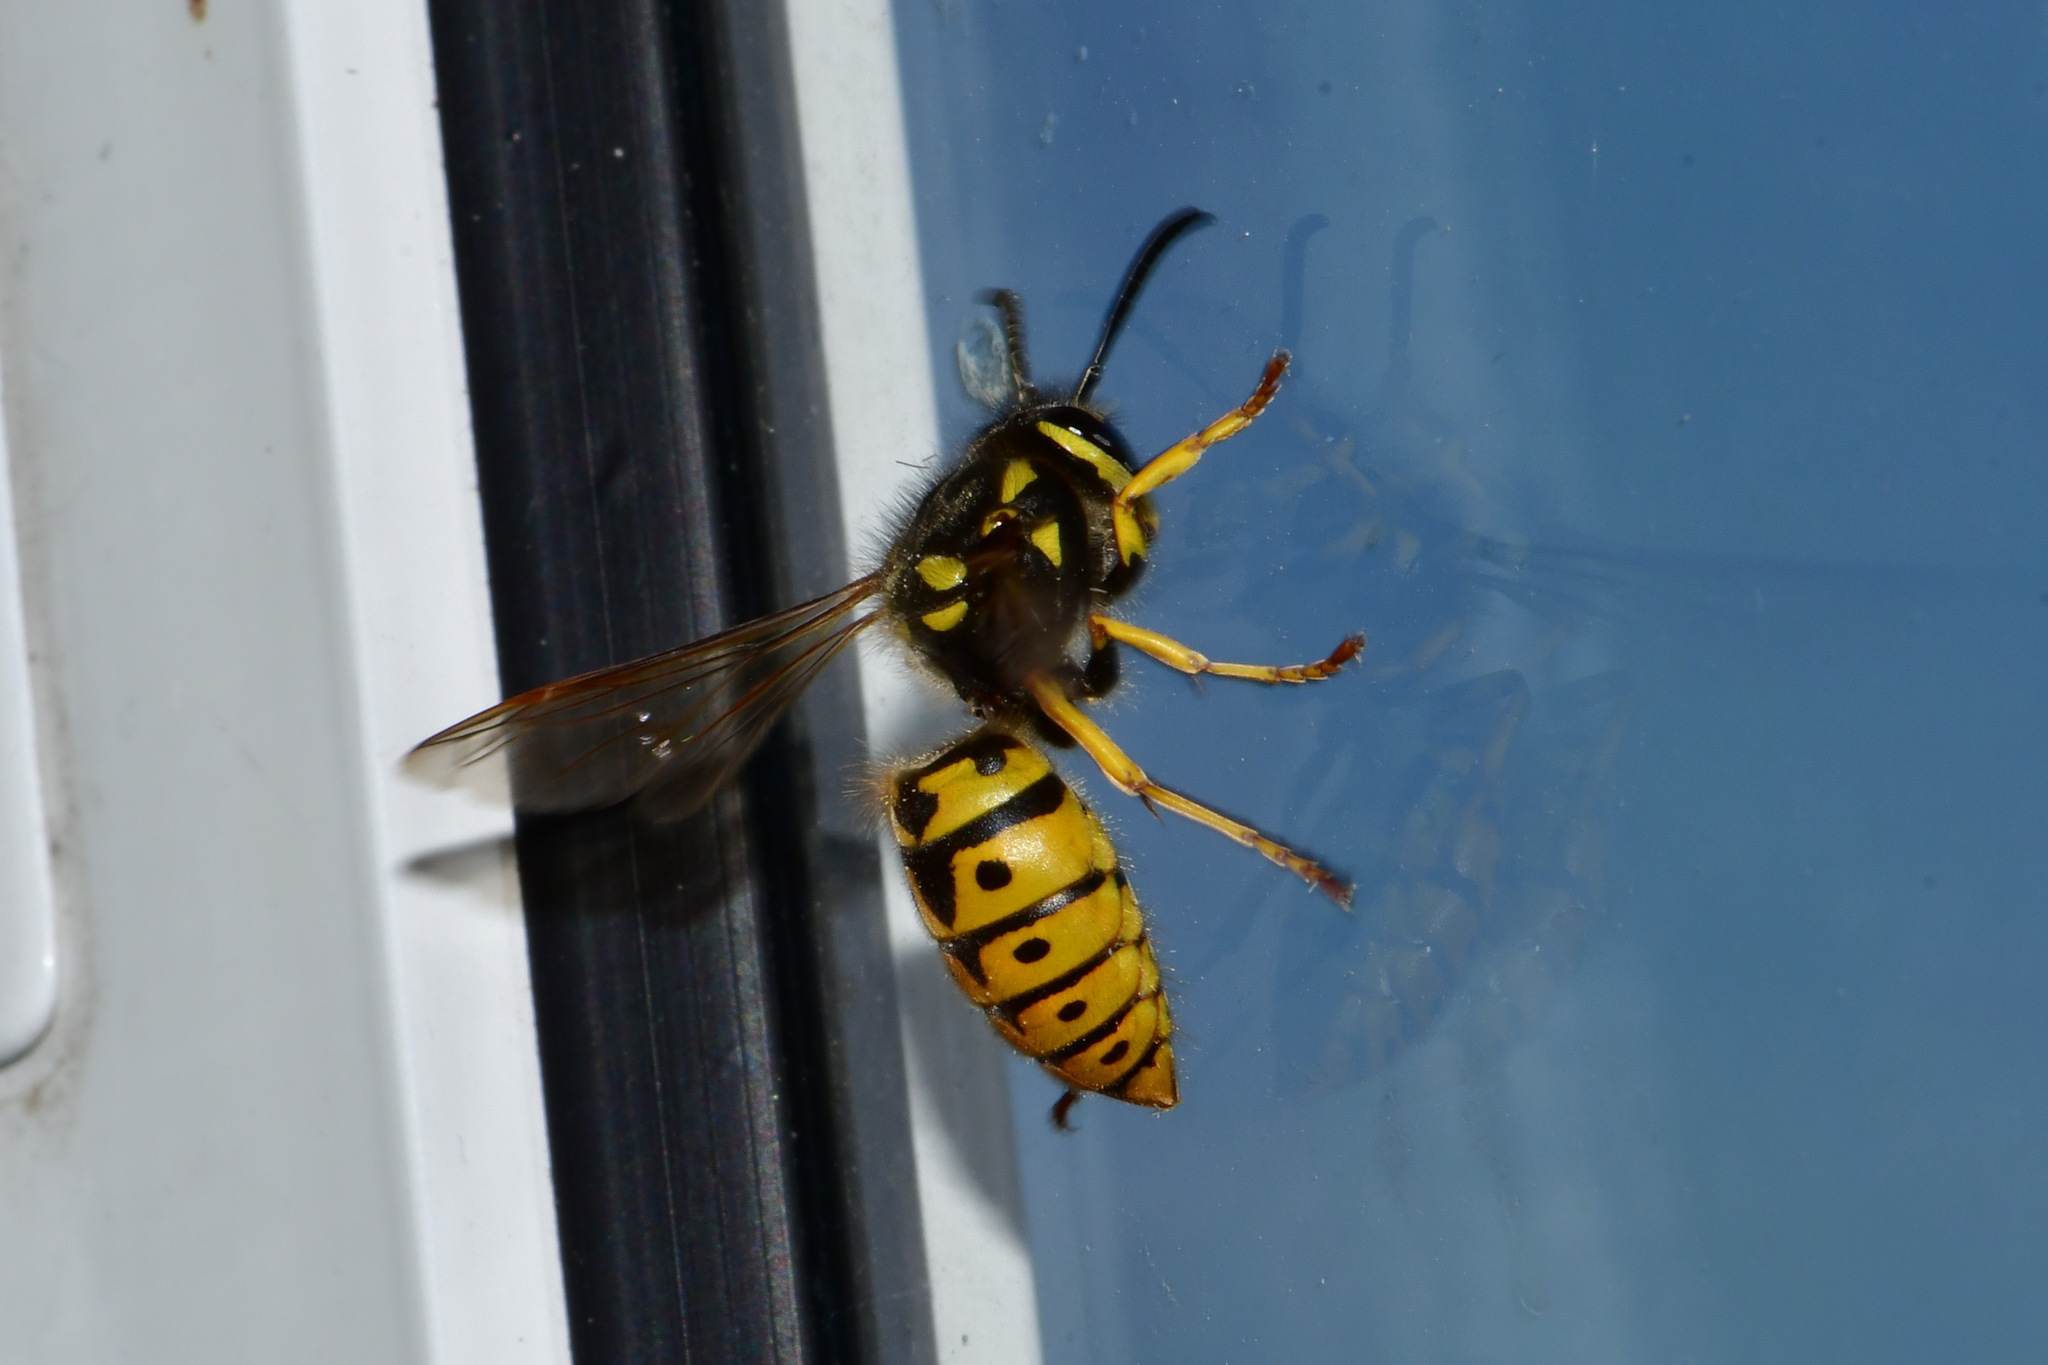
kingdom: Animalia
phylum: Arthropoda
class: Insecta
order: Hymenoptera
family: Vespidae
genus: Vespula
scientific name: Vespula germanica
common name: German wasp
